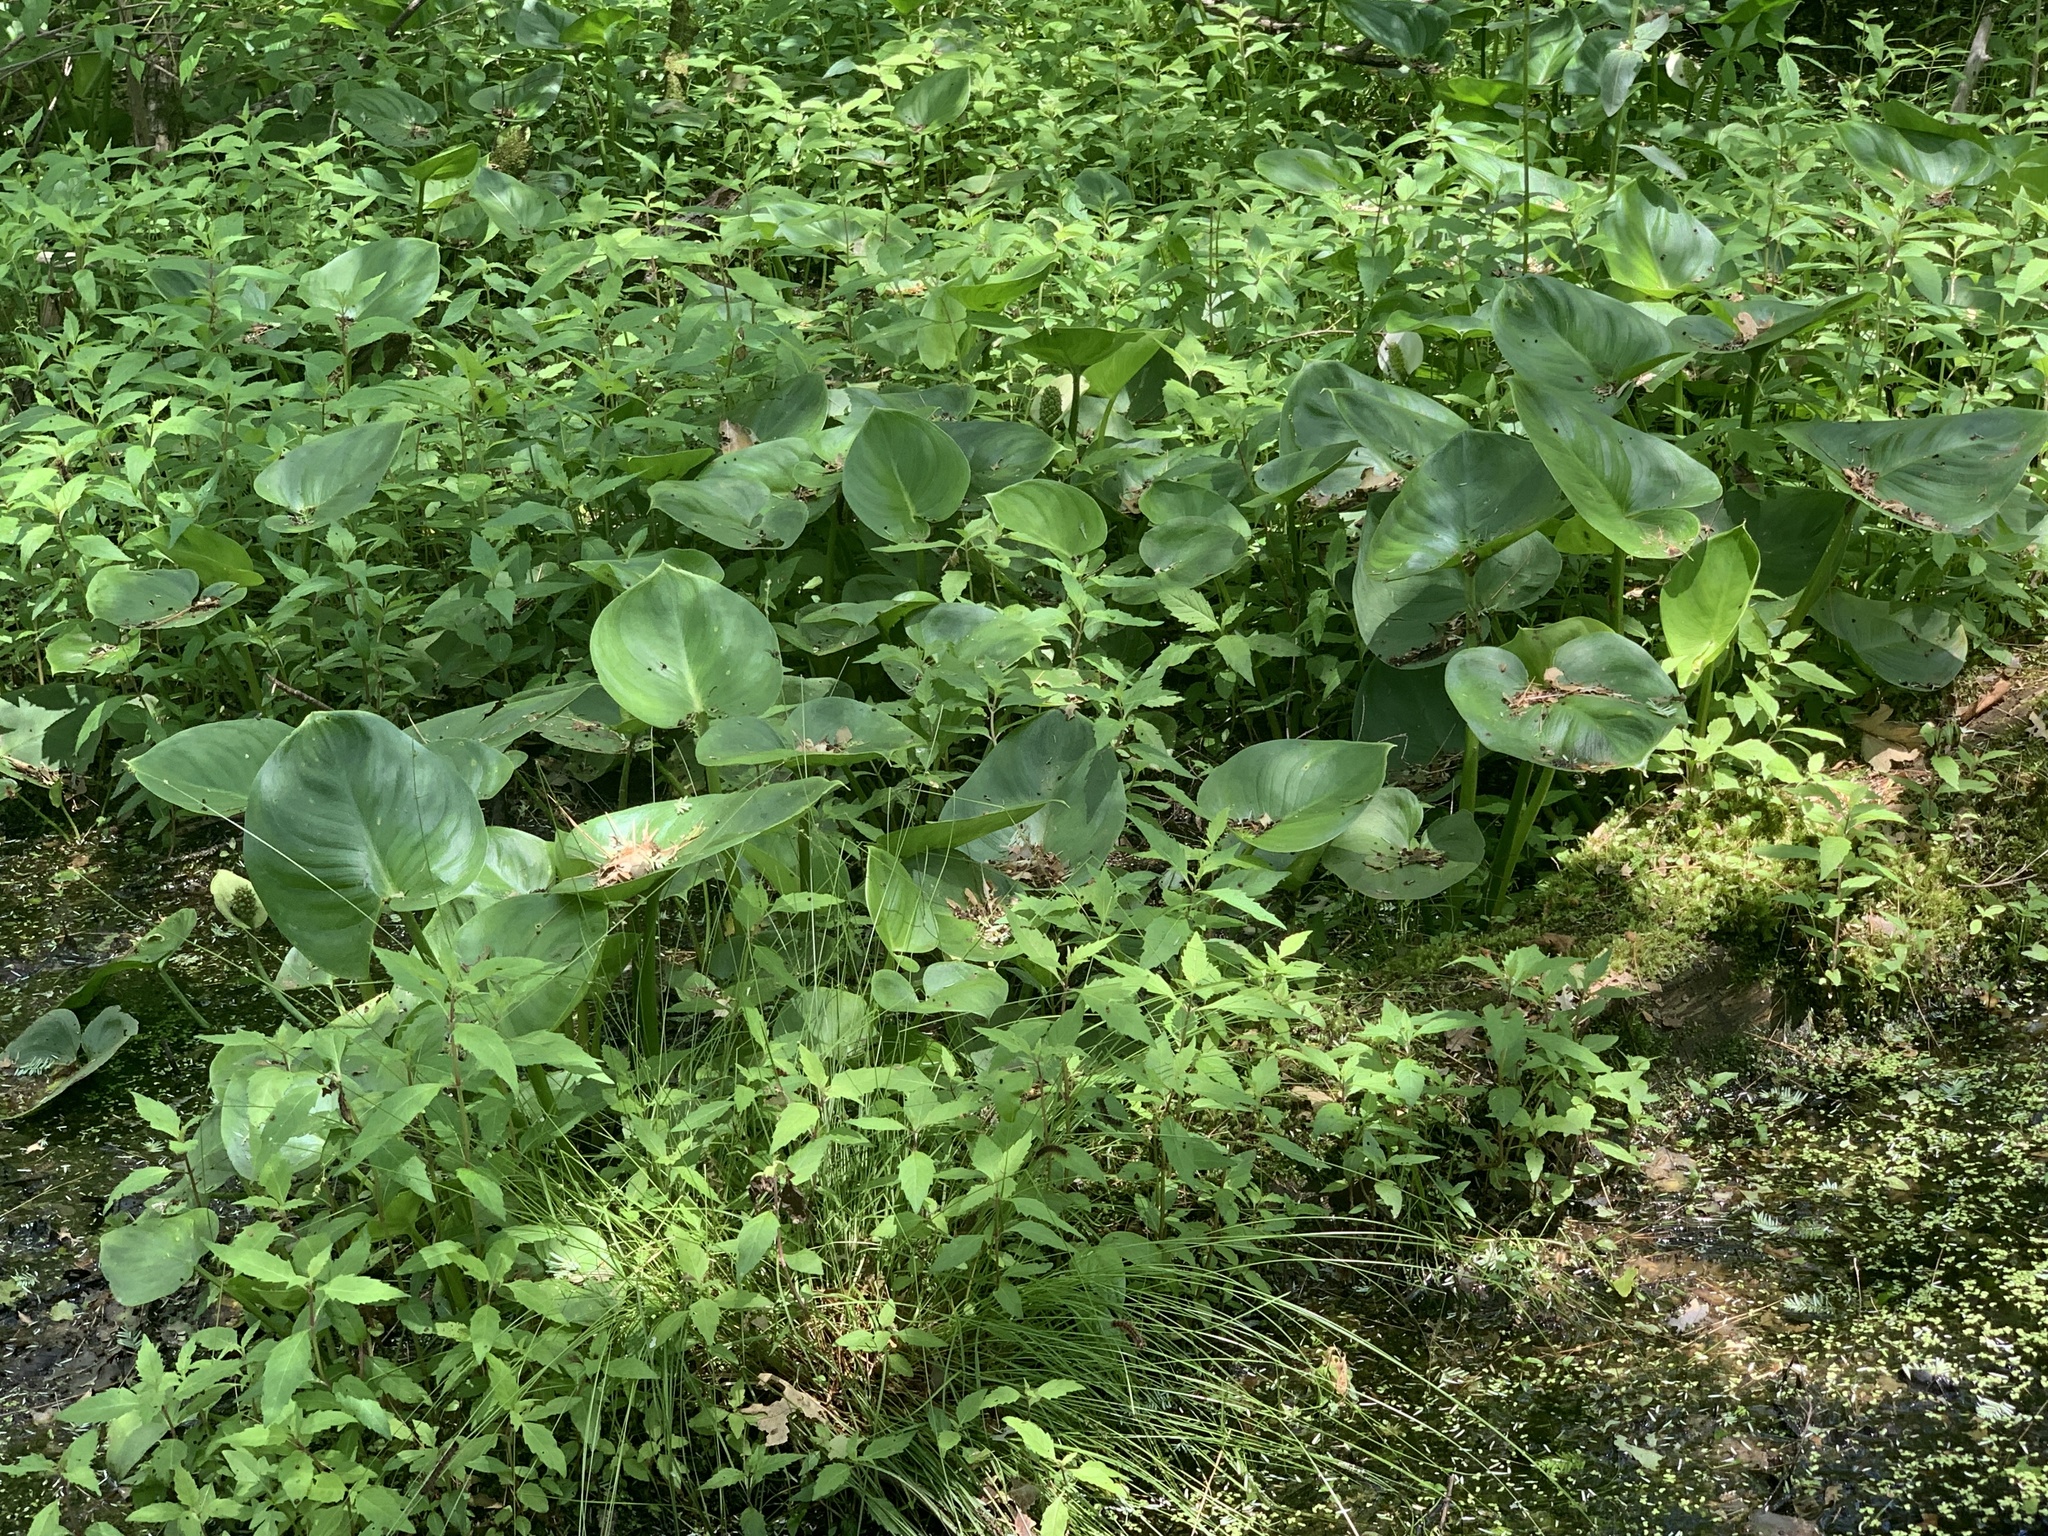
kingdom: Plantae
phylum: Tracheophyta
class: Liliopsida
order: Alismatales
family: Araceae
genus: Calla
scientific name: Calla palustris
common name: Bog arum
